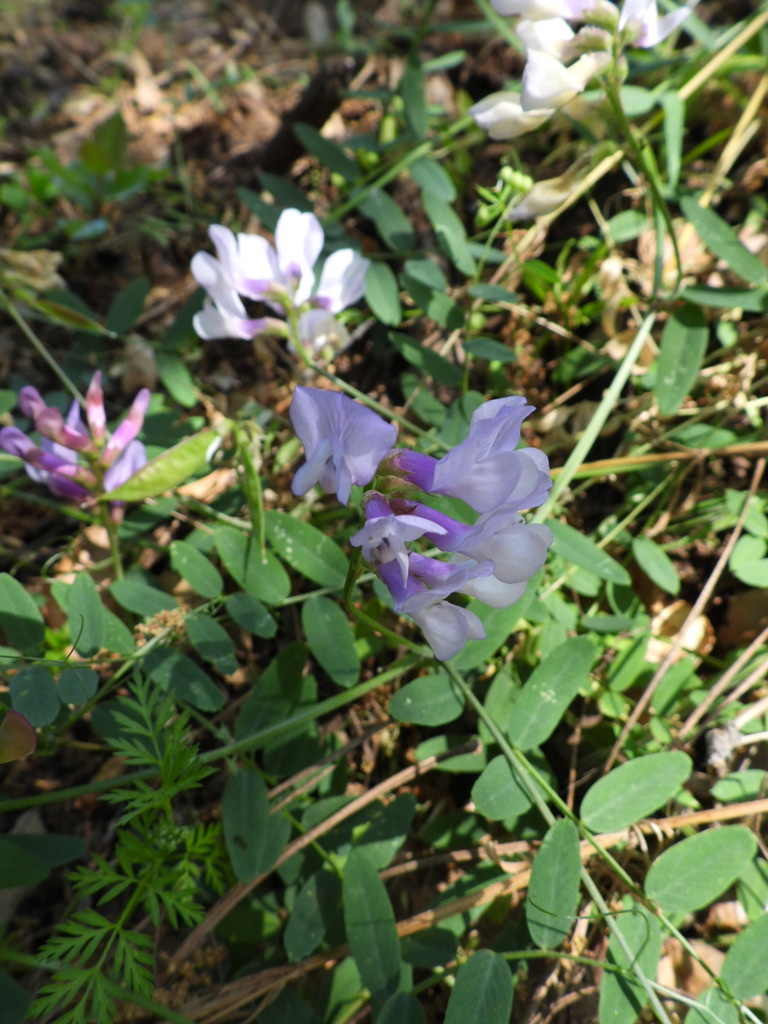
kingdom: Plantae
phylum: Tracheophyta
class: Magnoliopsida
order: Fabales
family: Fabaceae
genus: Vicia
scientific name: Vicia americana
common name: American vetch
